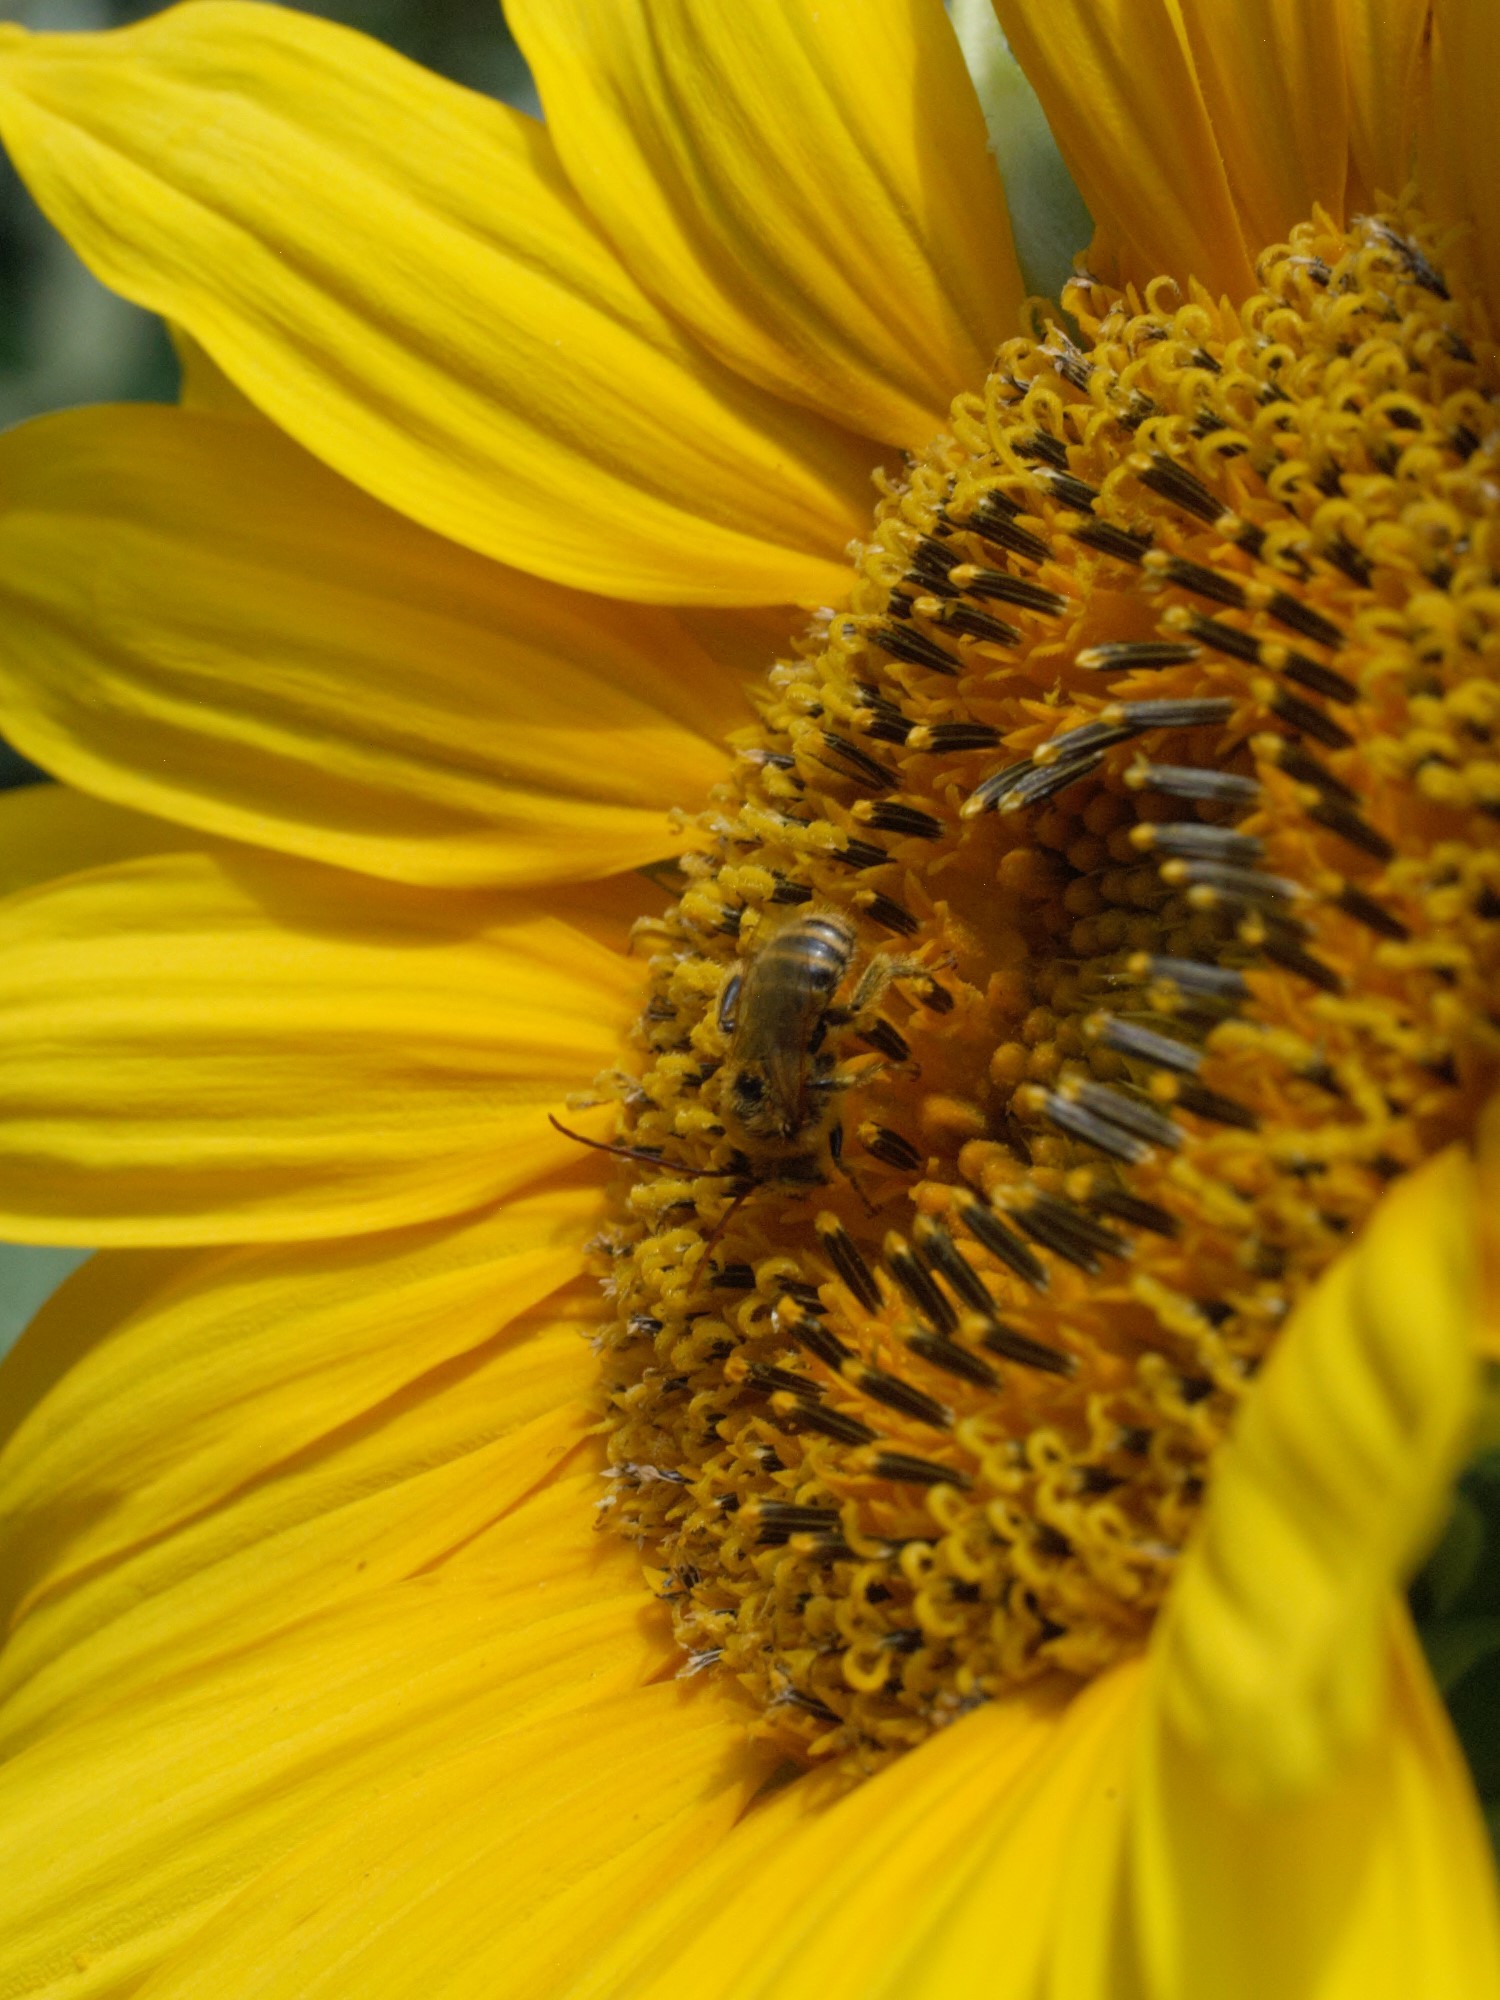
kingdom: Animalia
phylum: Arthropoda
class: Insecta
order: Hymenoptera
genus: Eumelissodes
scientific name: Eumelissodes
